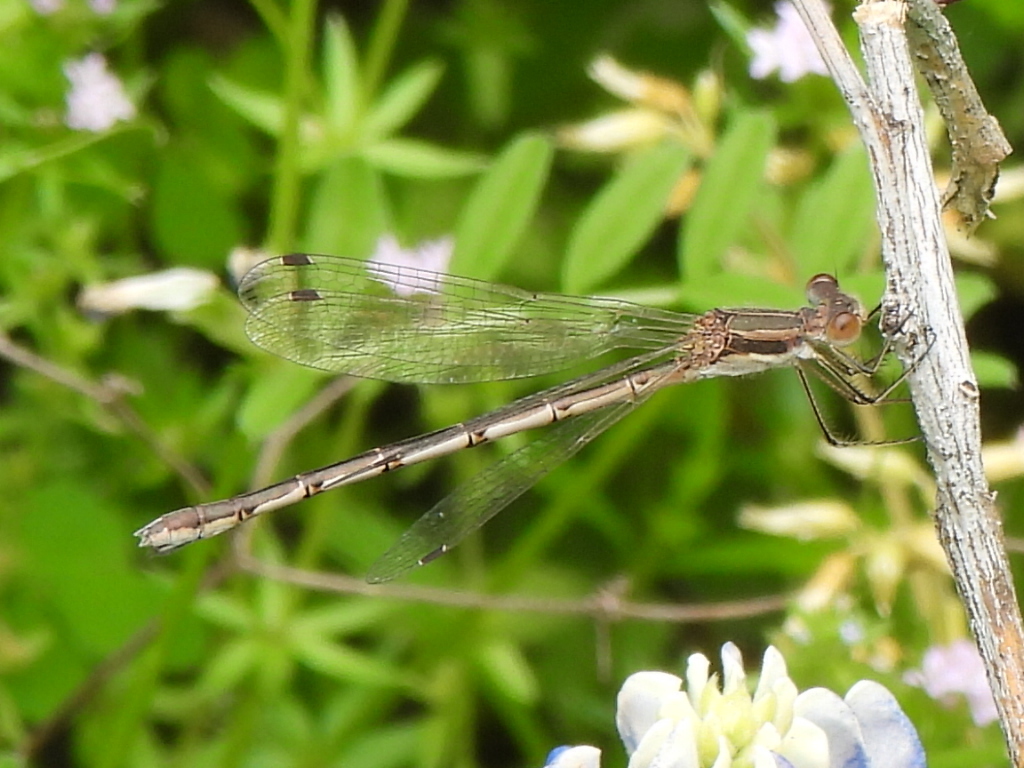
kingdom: Animalia
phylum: Arthropoda
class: Insecta
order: Odonata
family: Lestidae
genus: Lestes
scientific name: Lestes australis
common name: Southern spreadwing
